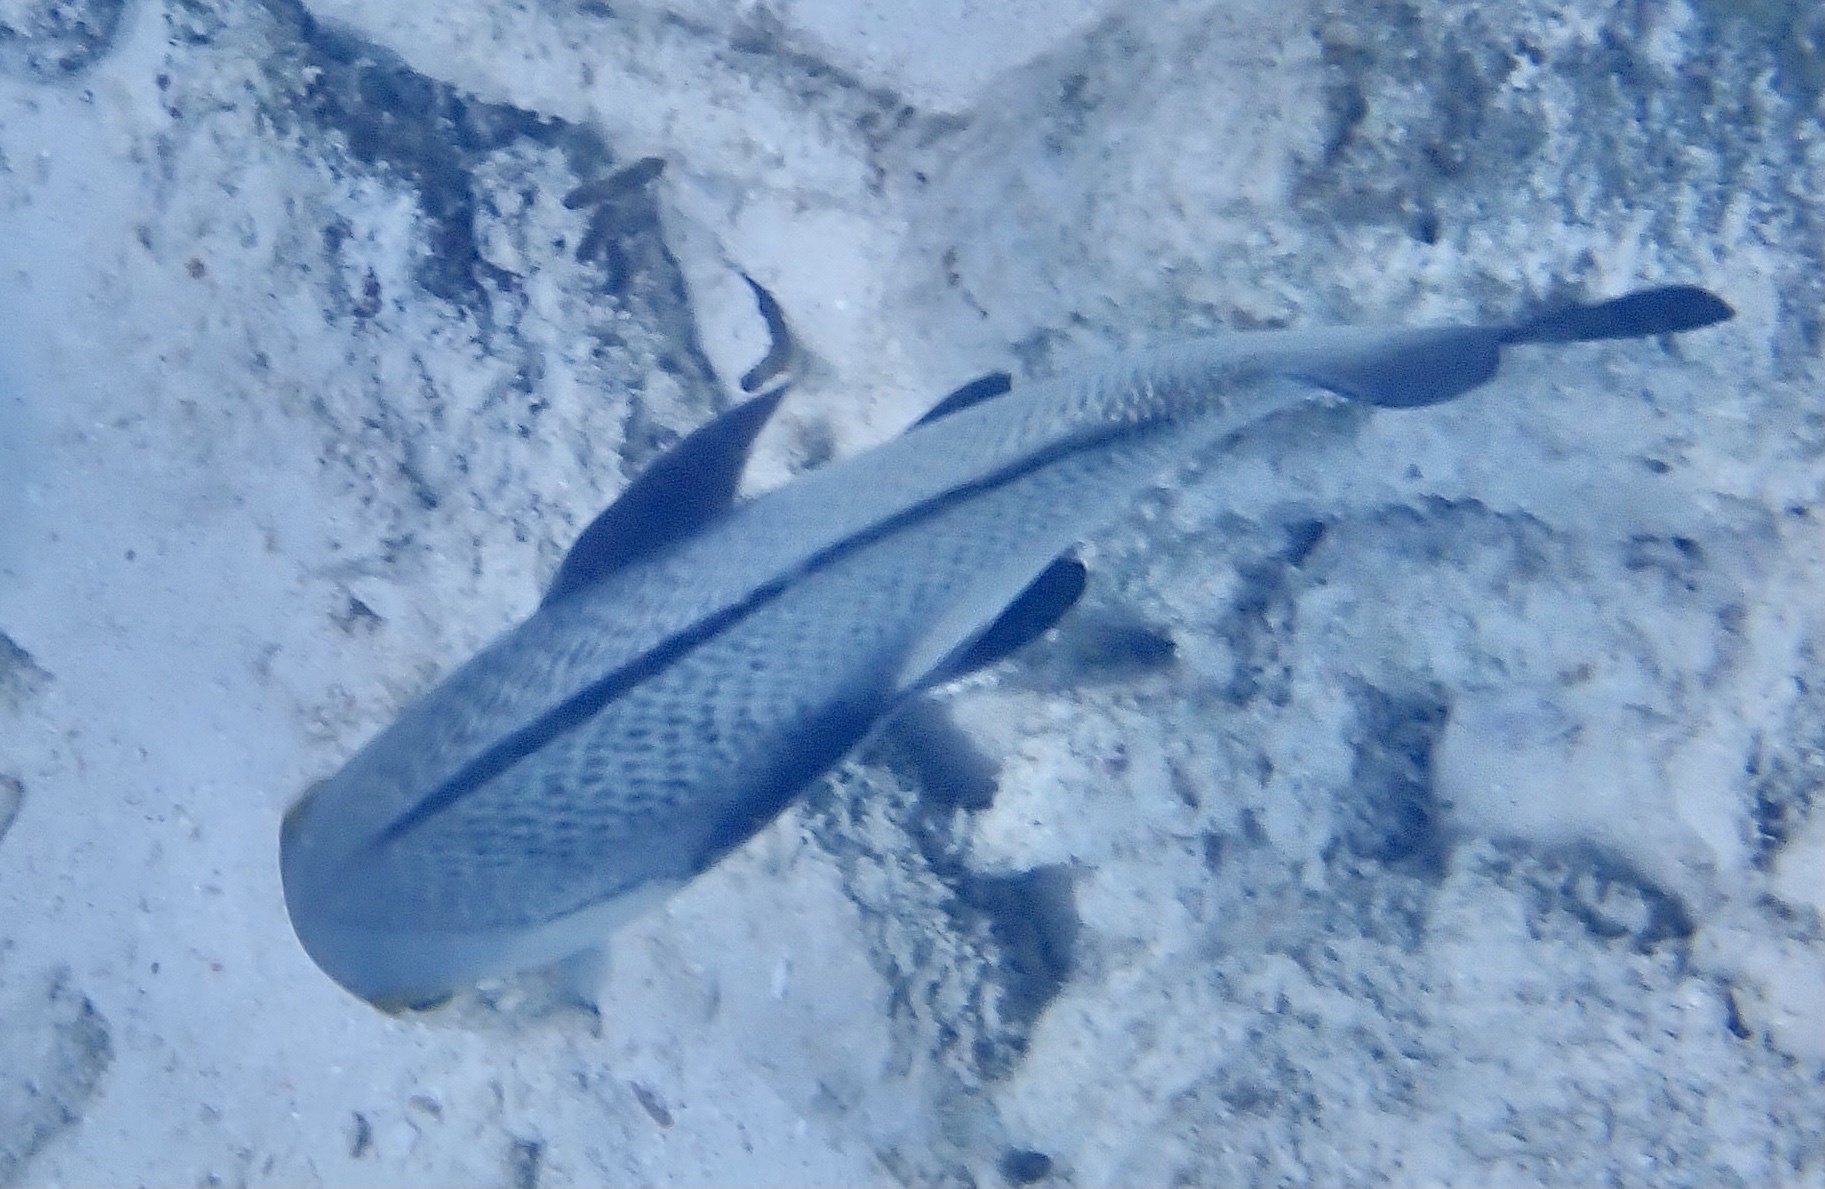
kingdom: Animalia
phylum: Chordata
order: Perciformes
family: Haemulidae
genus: Anisotremus
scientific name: Anisotremus surinamensis
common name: Black margate
